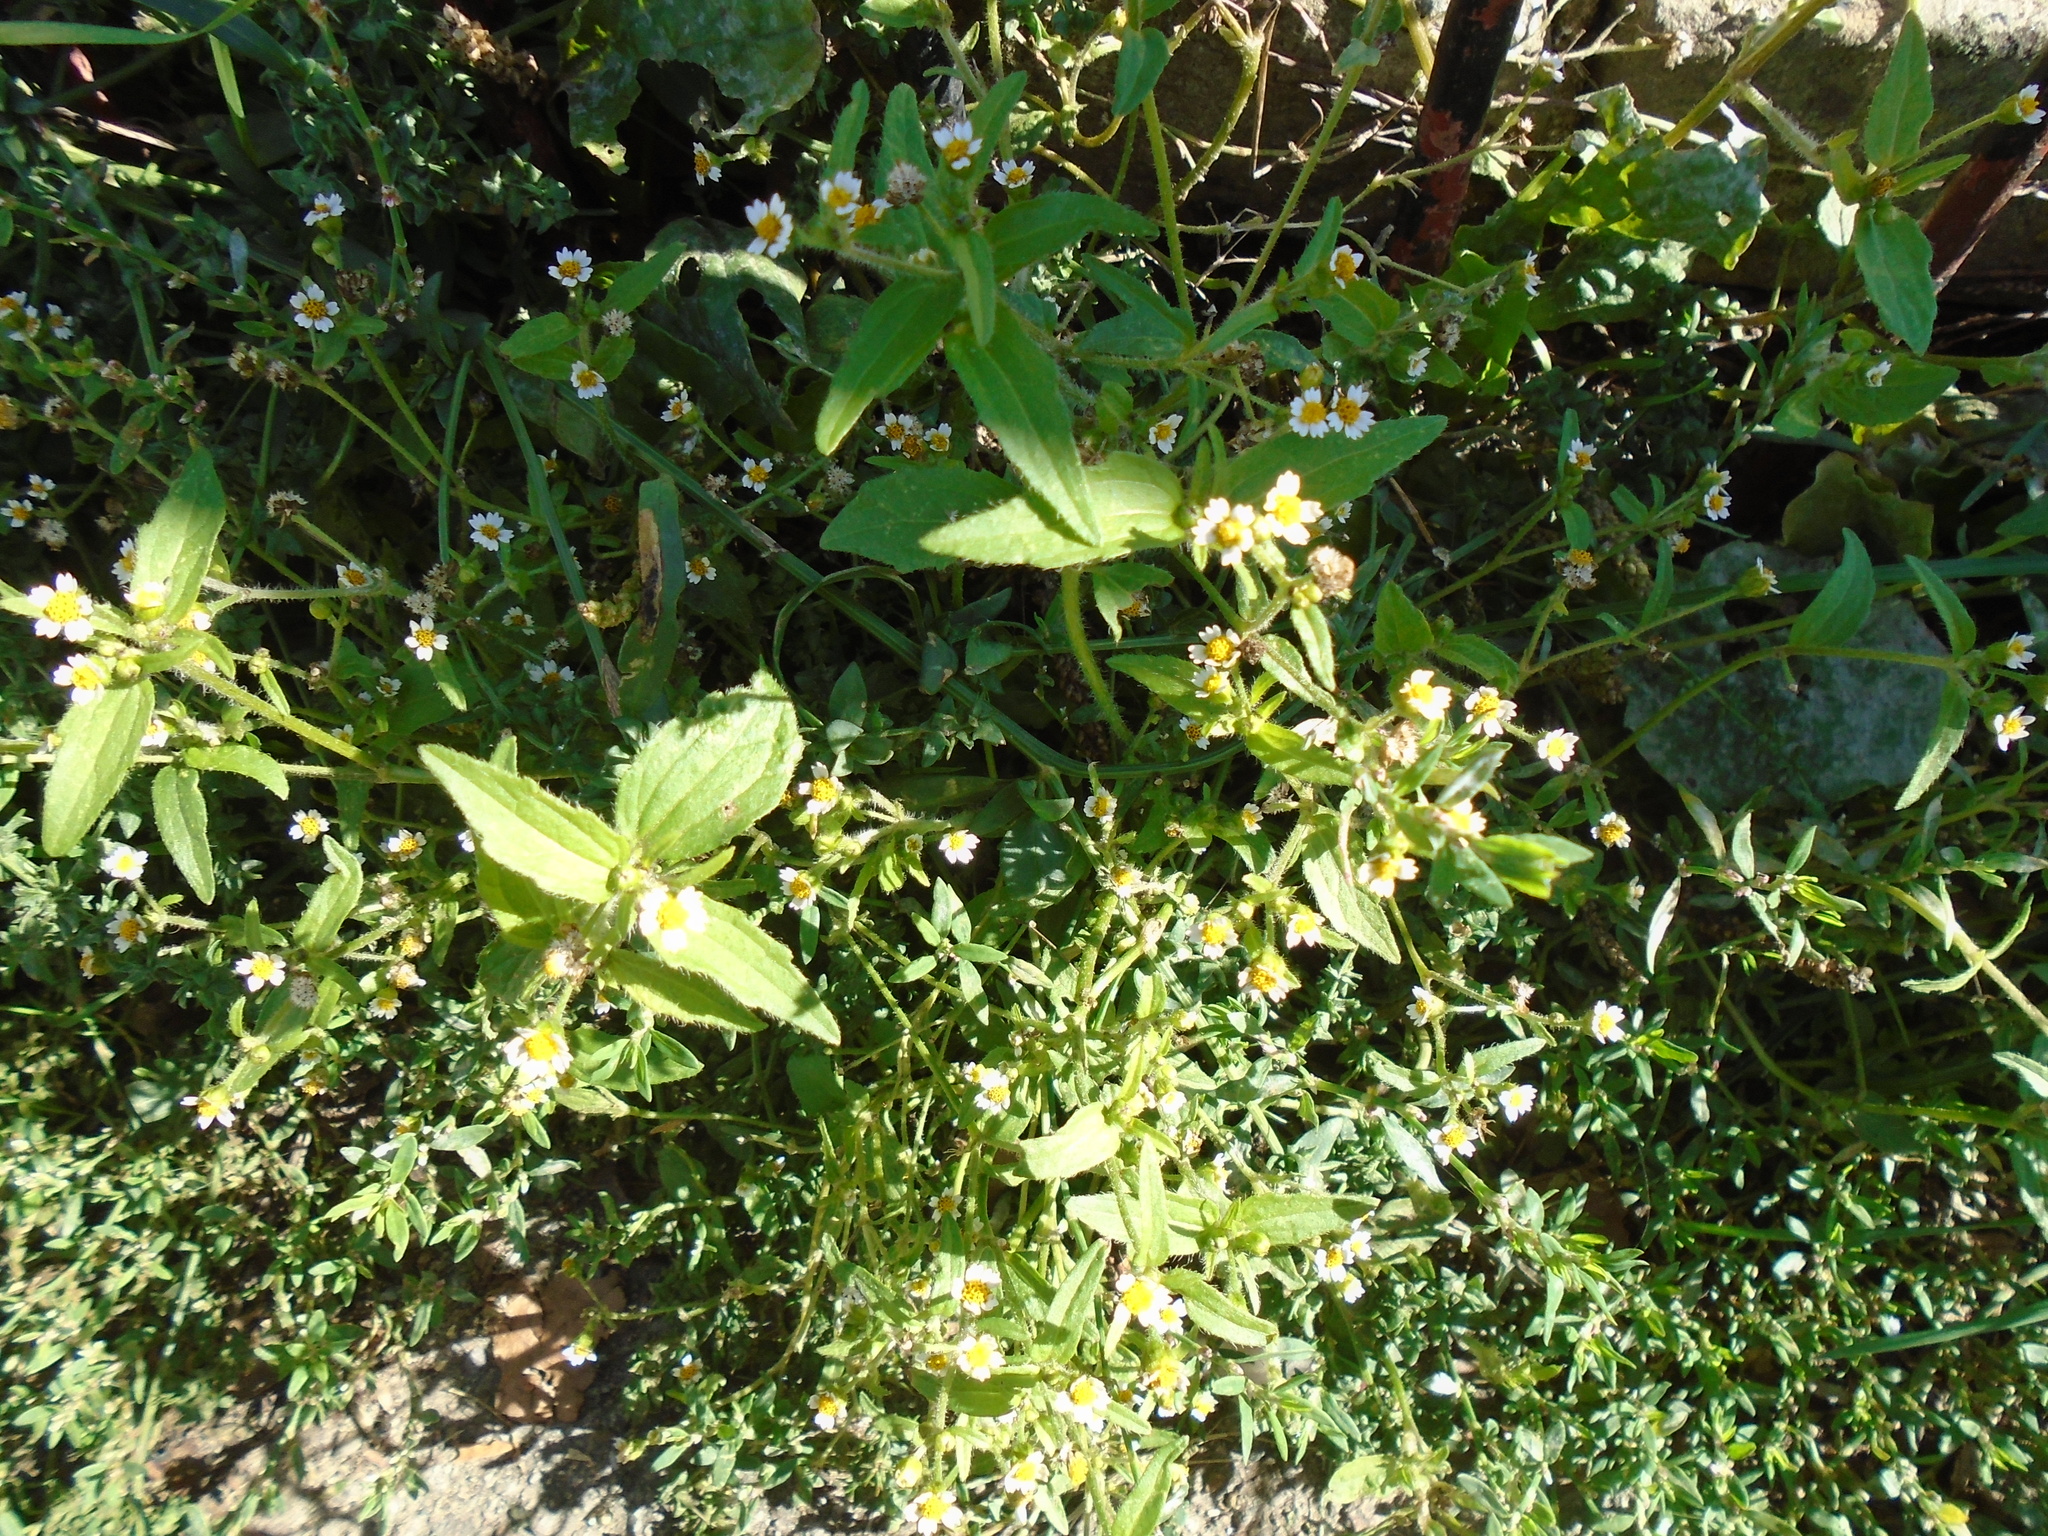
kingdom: Plantae
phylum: Tracheophyta
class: Magnoliopsida
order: Asterales
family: Asteraceae
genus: Galinsoga
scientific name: Galinsoga quadriradiata
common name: Shaggy soldier
